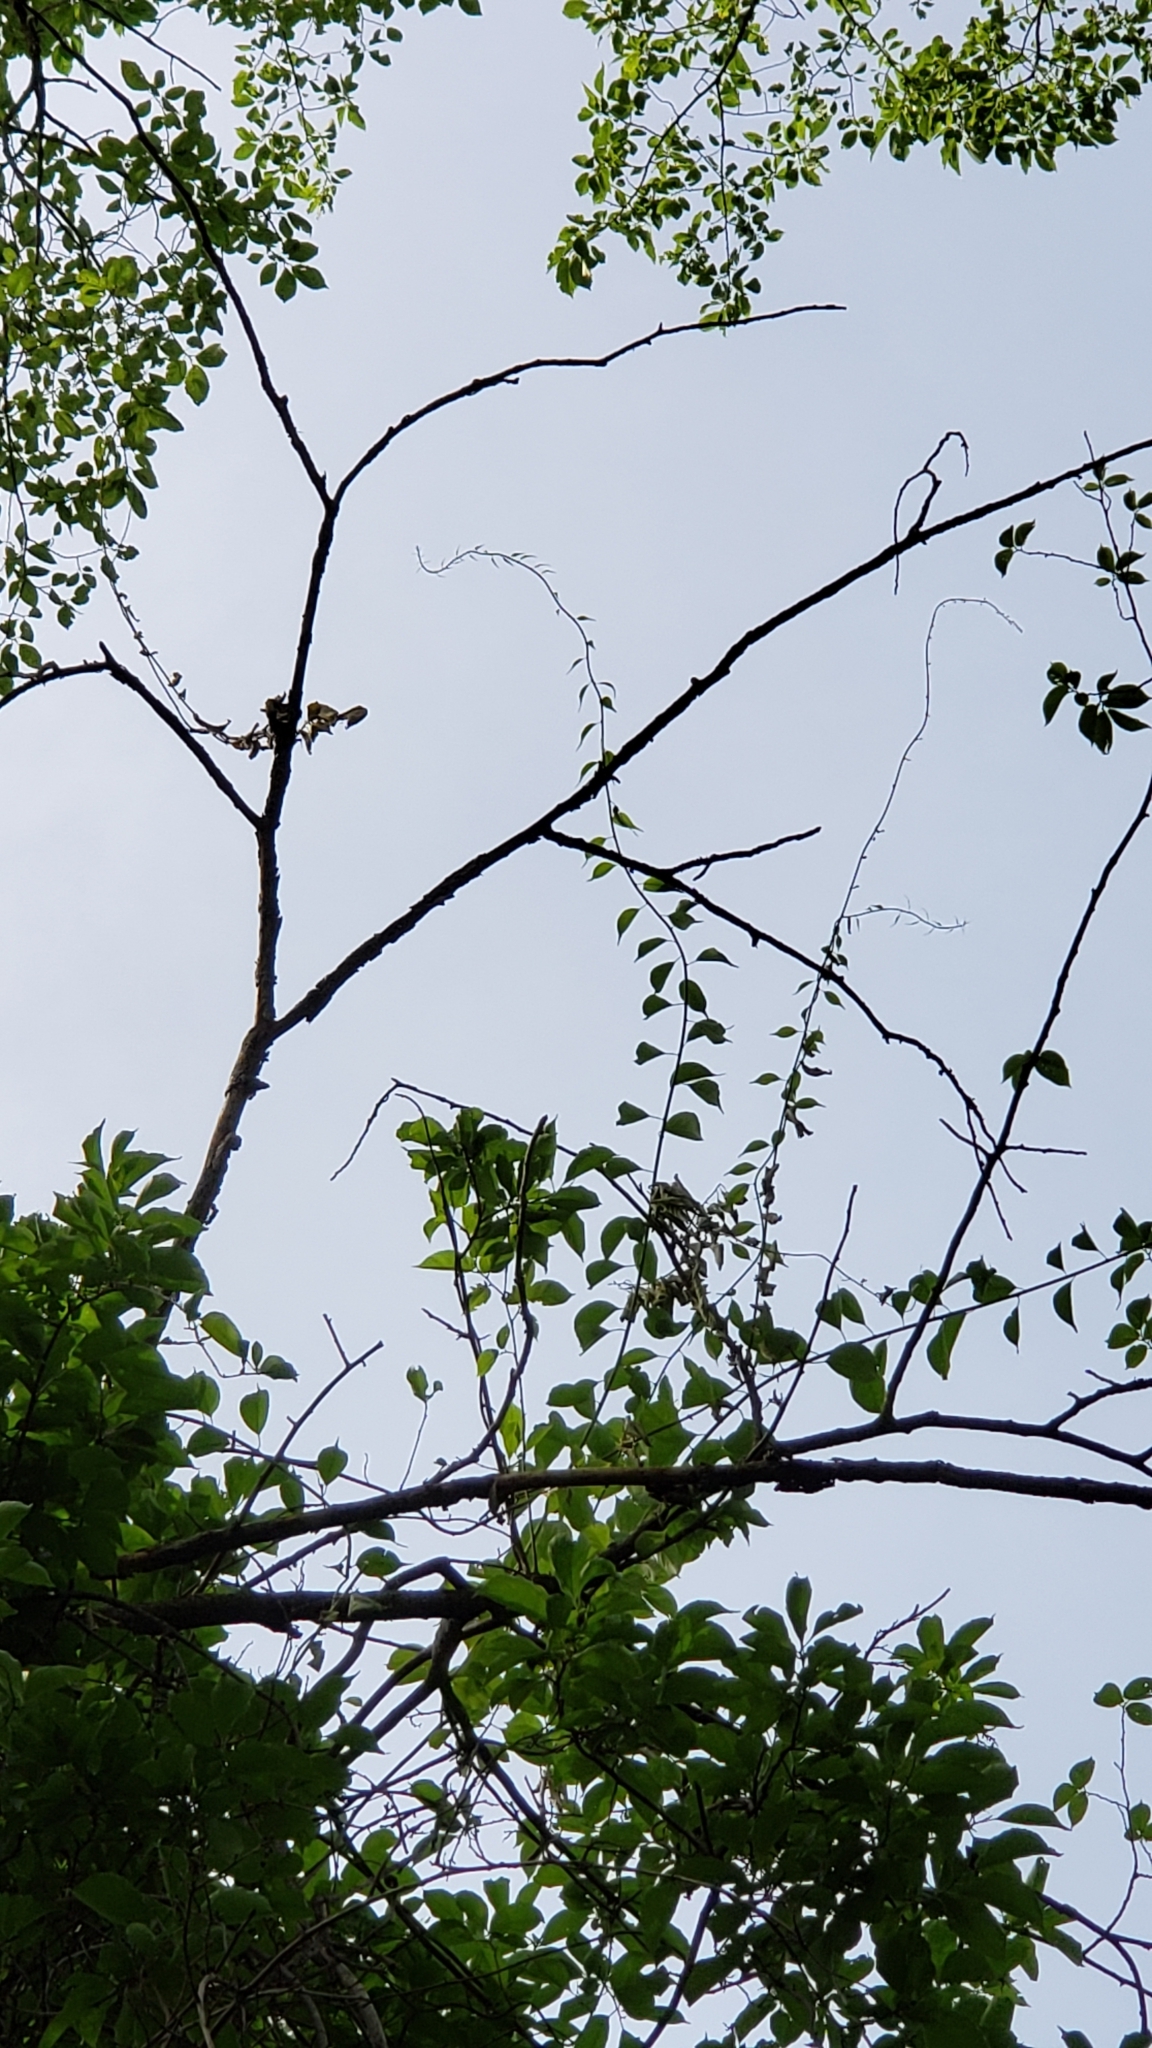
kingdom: Plantae
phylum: Tracheophyta
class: Magnoliopsida
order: Celastrales
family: Celastraceae
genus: Celastrus
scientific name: Celastrus scandens
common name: American bittersweet
